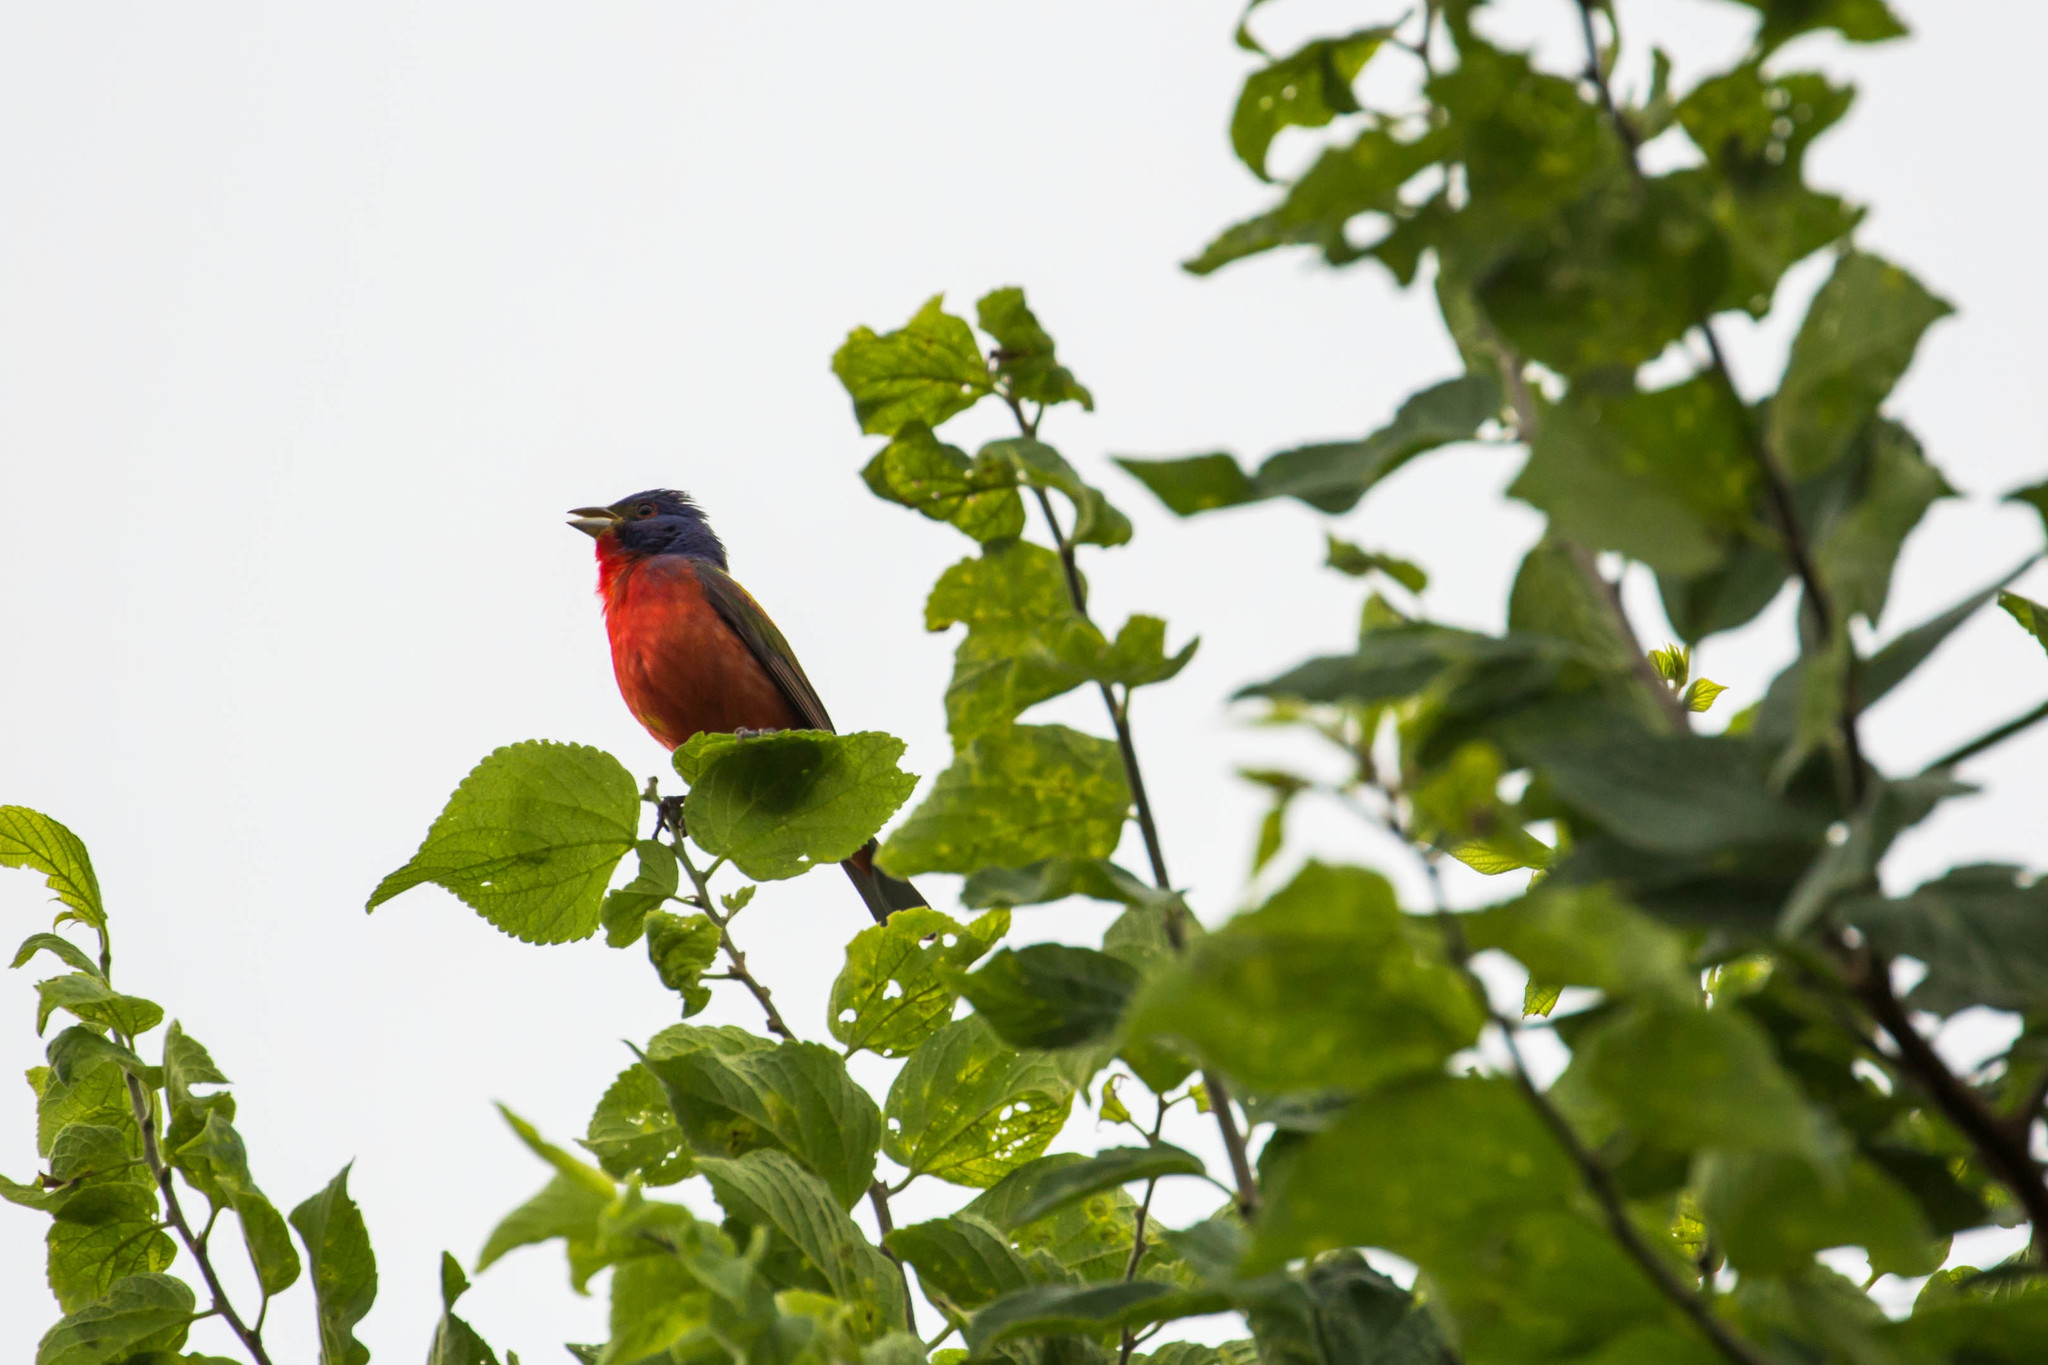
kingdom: Animalia
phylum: Chordata
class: Aves
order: Passeriformes
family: Cardinalidae
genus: Passerina
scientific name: Passerina ciris
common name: Painted bunting
